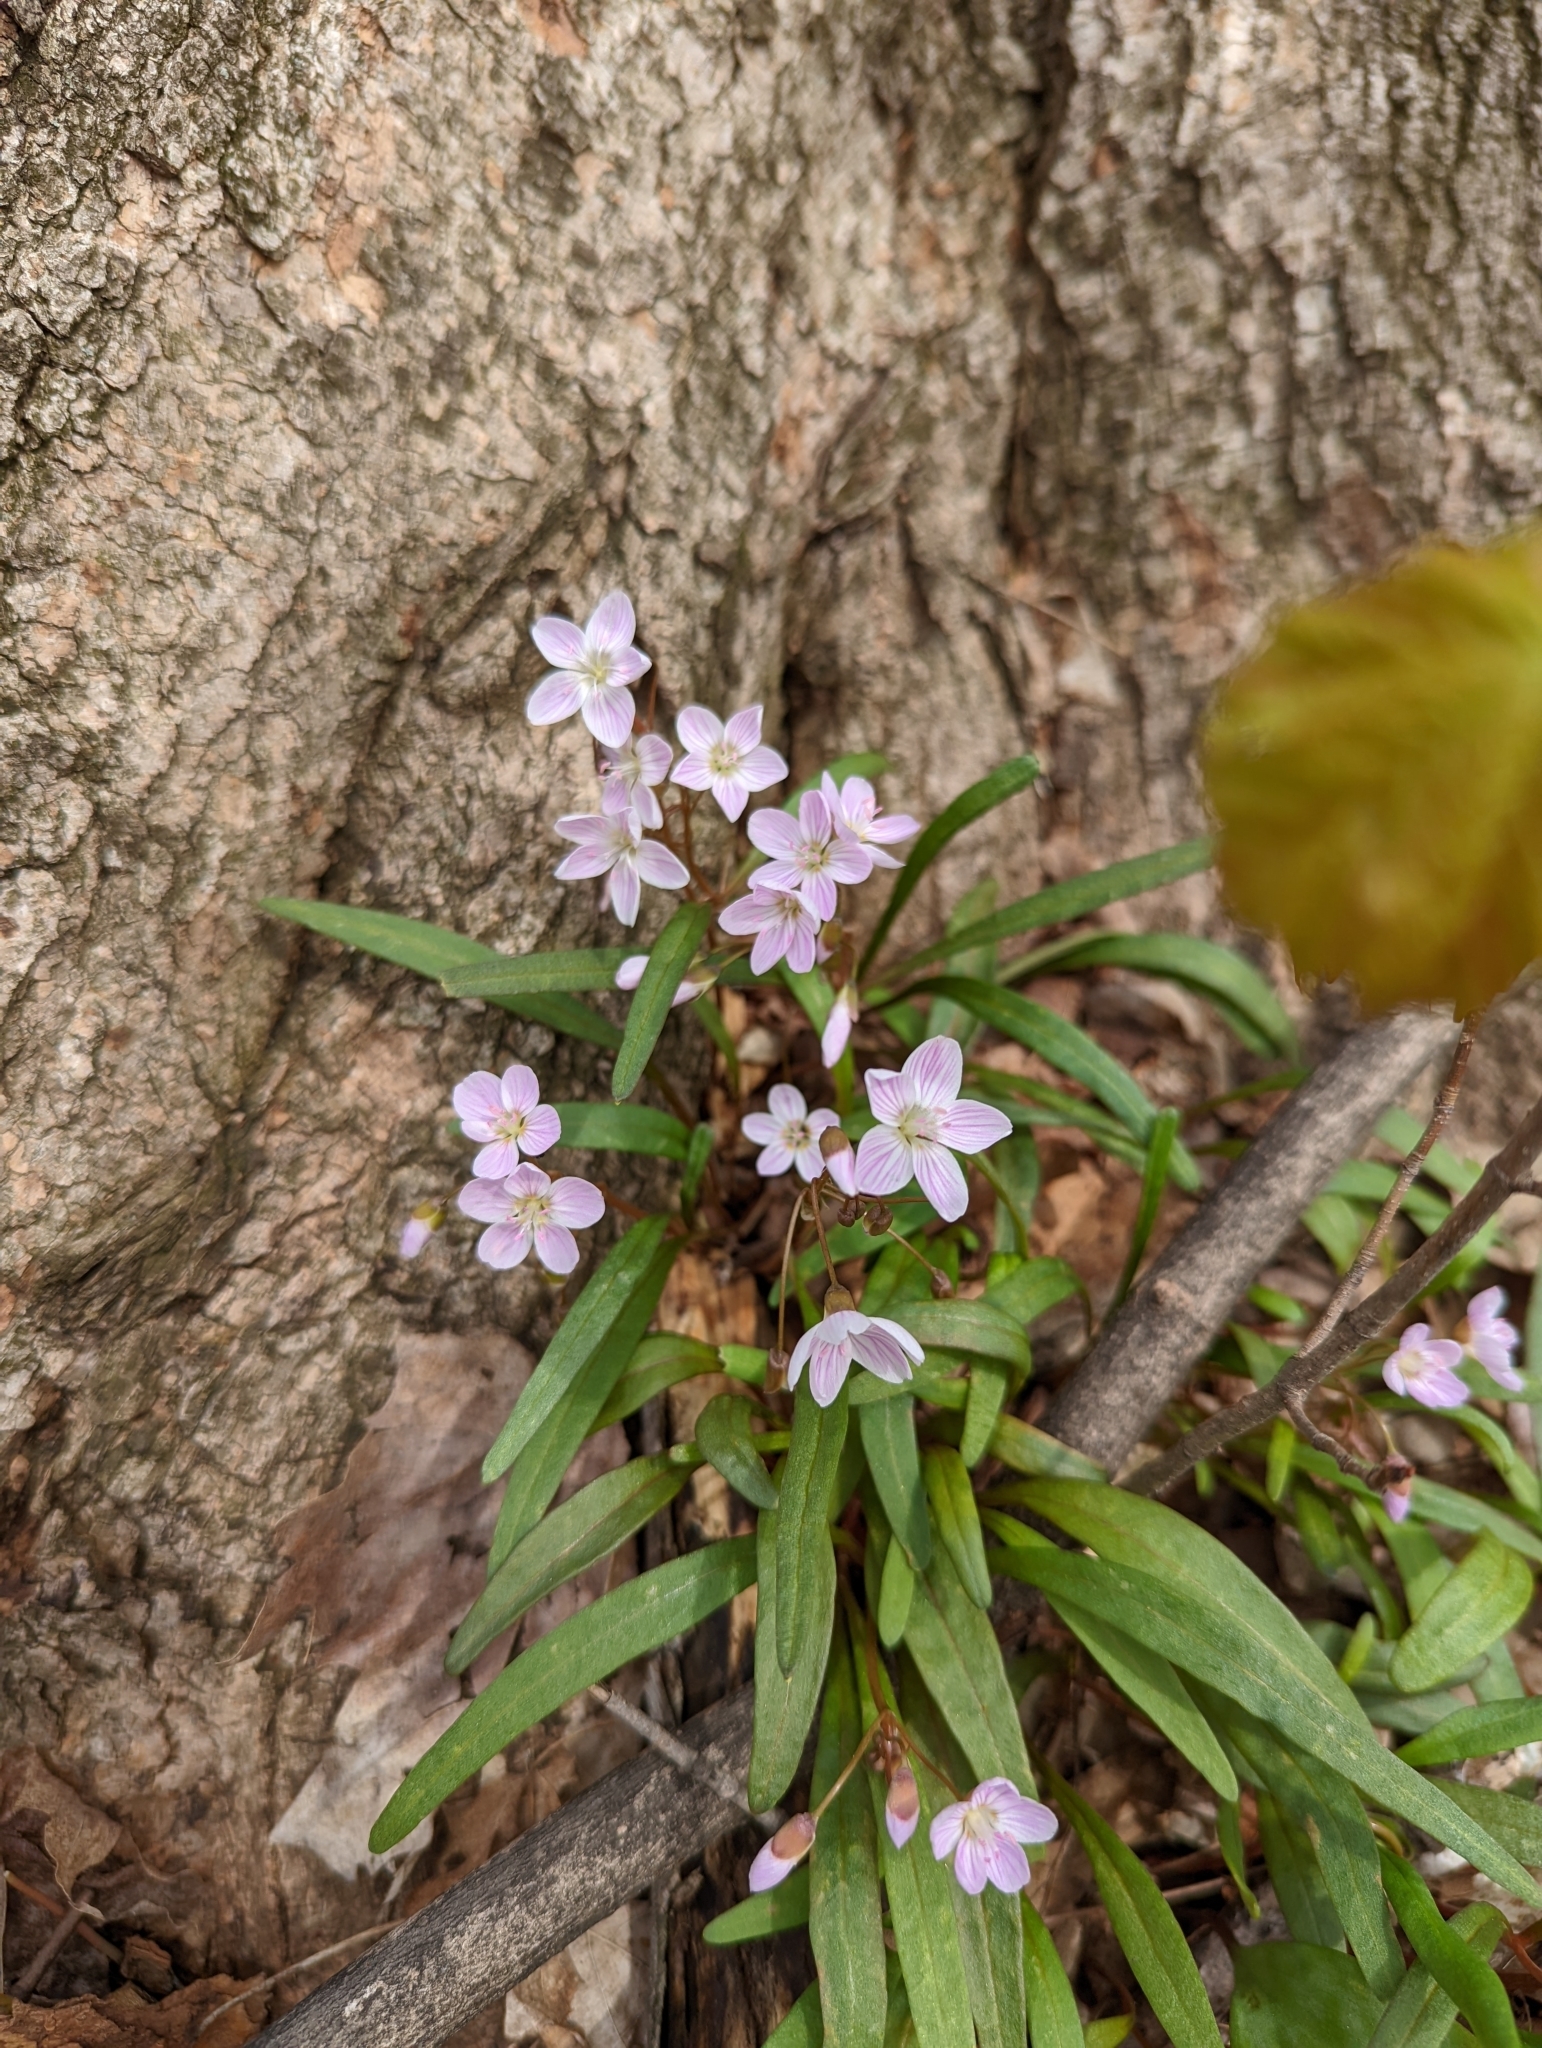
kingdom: Plantae
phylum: Tracheophyta
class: Magnoliopsida
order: Caryophyllales
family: Montiaceae
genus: Claytonia
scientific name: Claytonia virginica
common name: Virginia springbeauty
